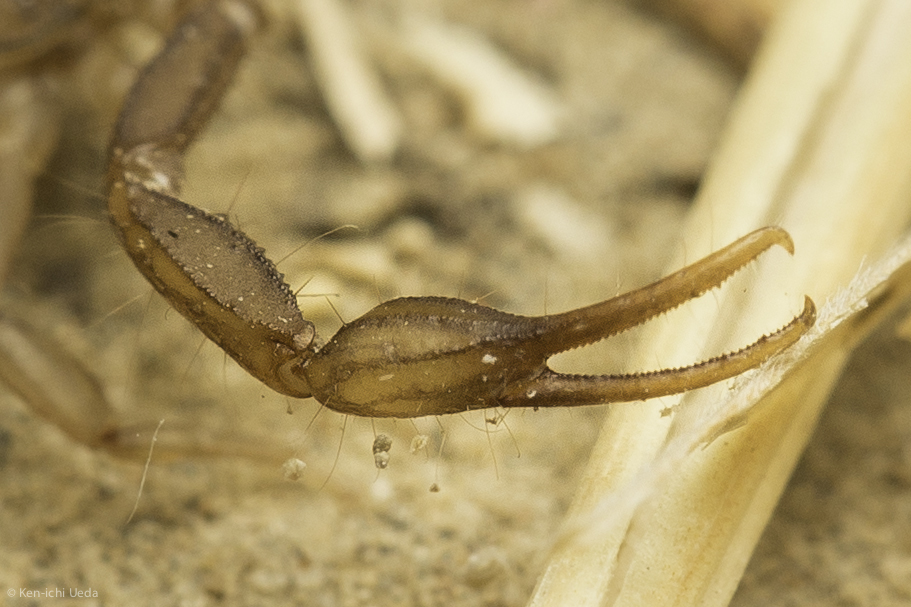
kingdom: Animalia
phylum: Arthropoda
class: Arachnida
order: Scorpiones
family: Vaejovidae
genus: Serradigitus
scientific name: Serradigitus gertschi
